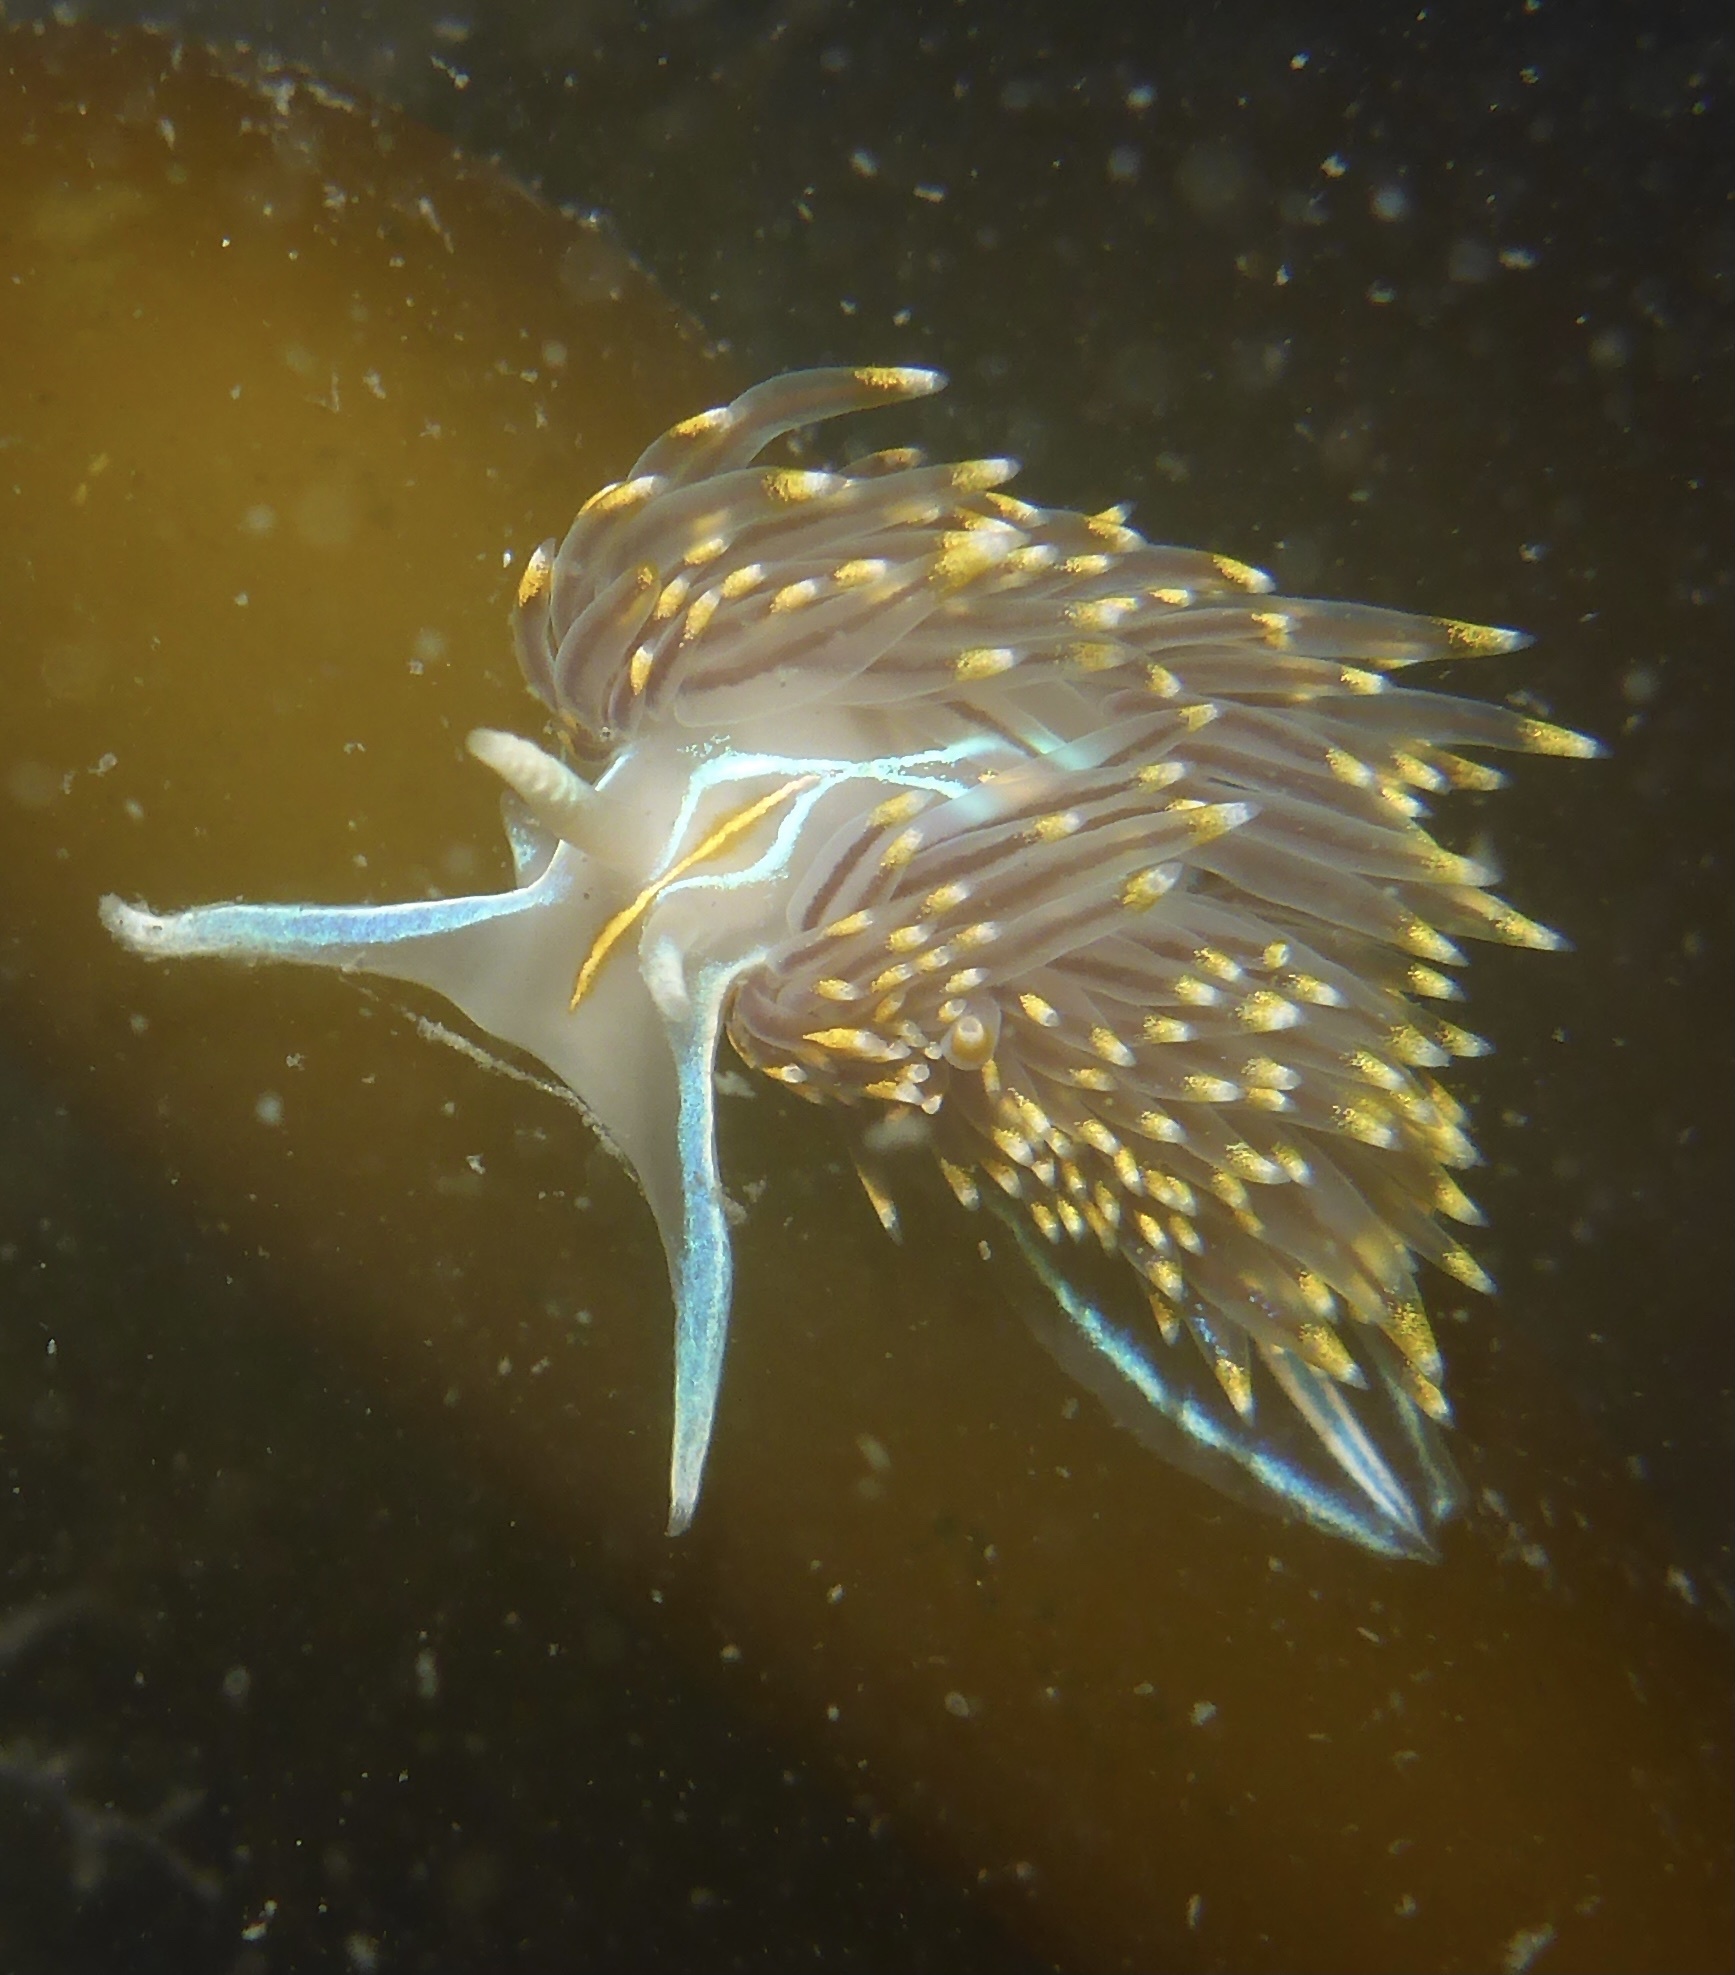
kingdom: Animalia
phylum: Mollusca
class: Gastropoda
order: Nudibranchia
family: Myrrhinidae
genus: Hermissenda
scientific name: Hermissenda opalescens
